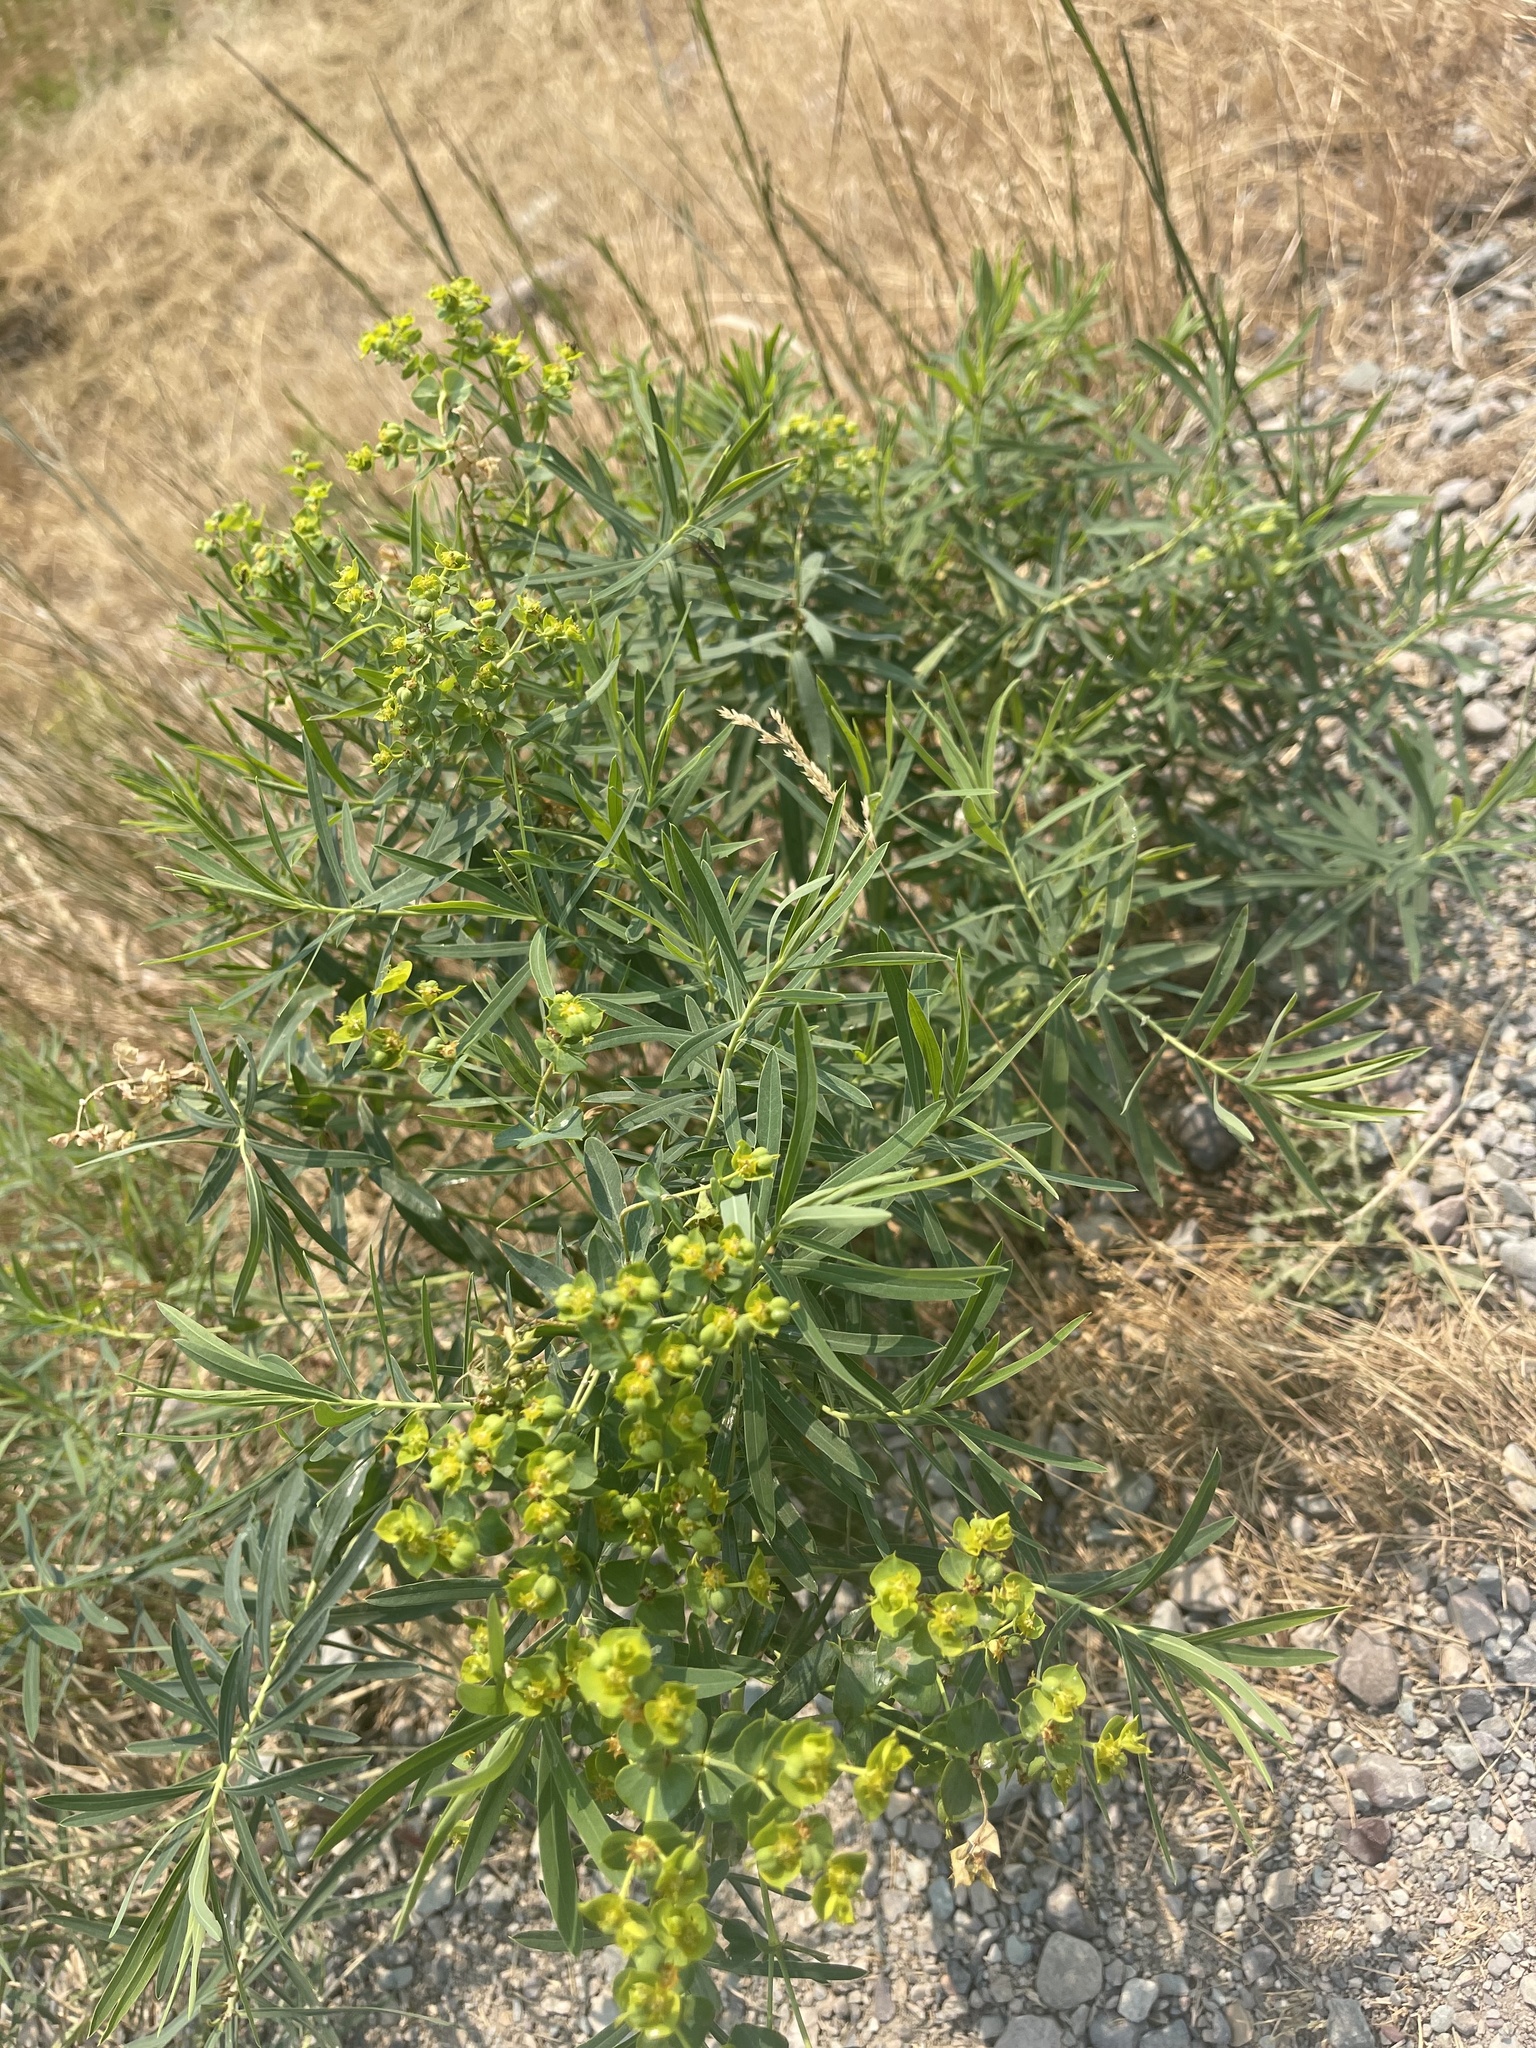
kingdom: Plantae
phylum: Tracheophyta
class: Magnoliopsida
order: Malpighiales
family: Euphorbiaceae
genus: Euphorbia
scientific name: Euphorbia virgata
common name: Leafy spurge
